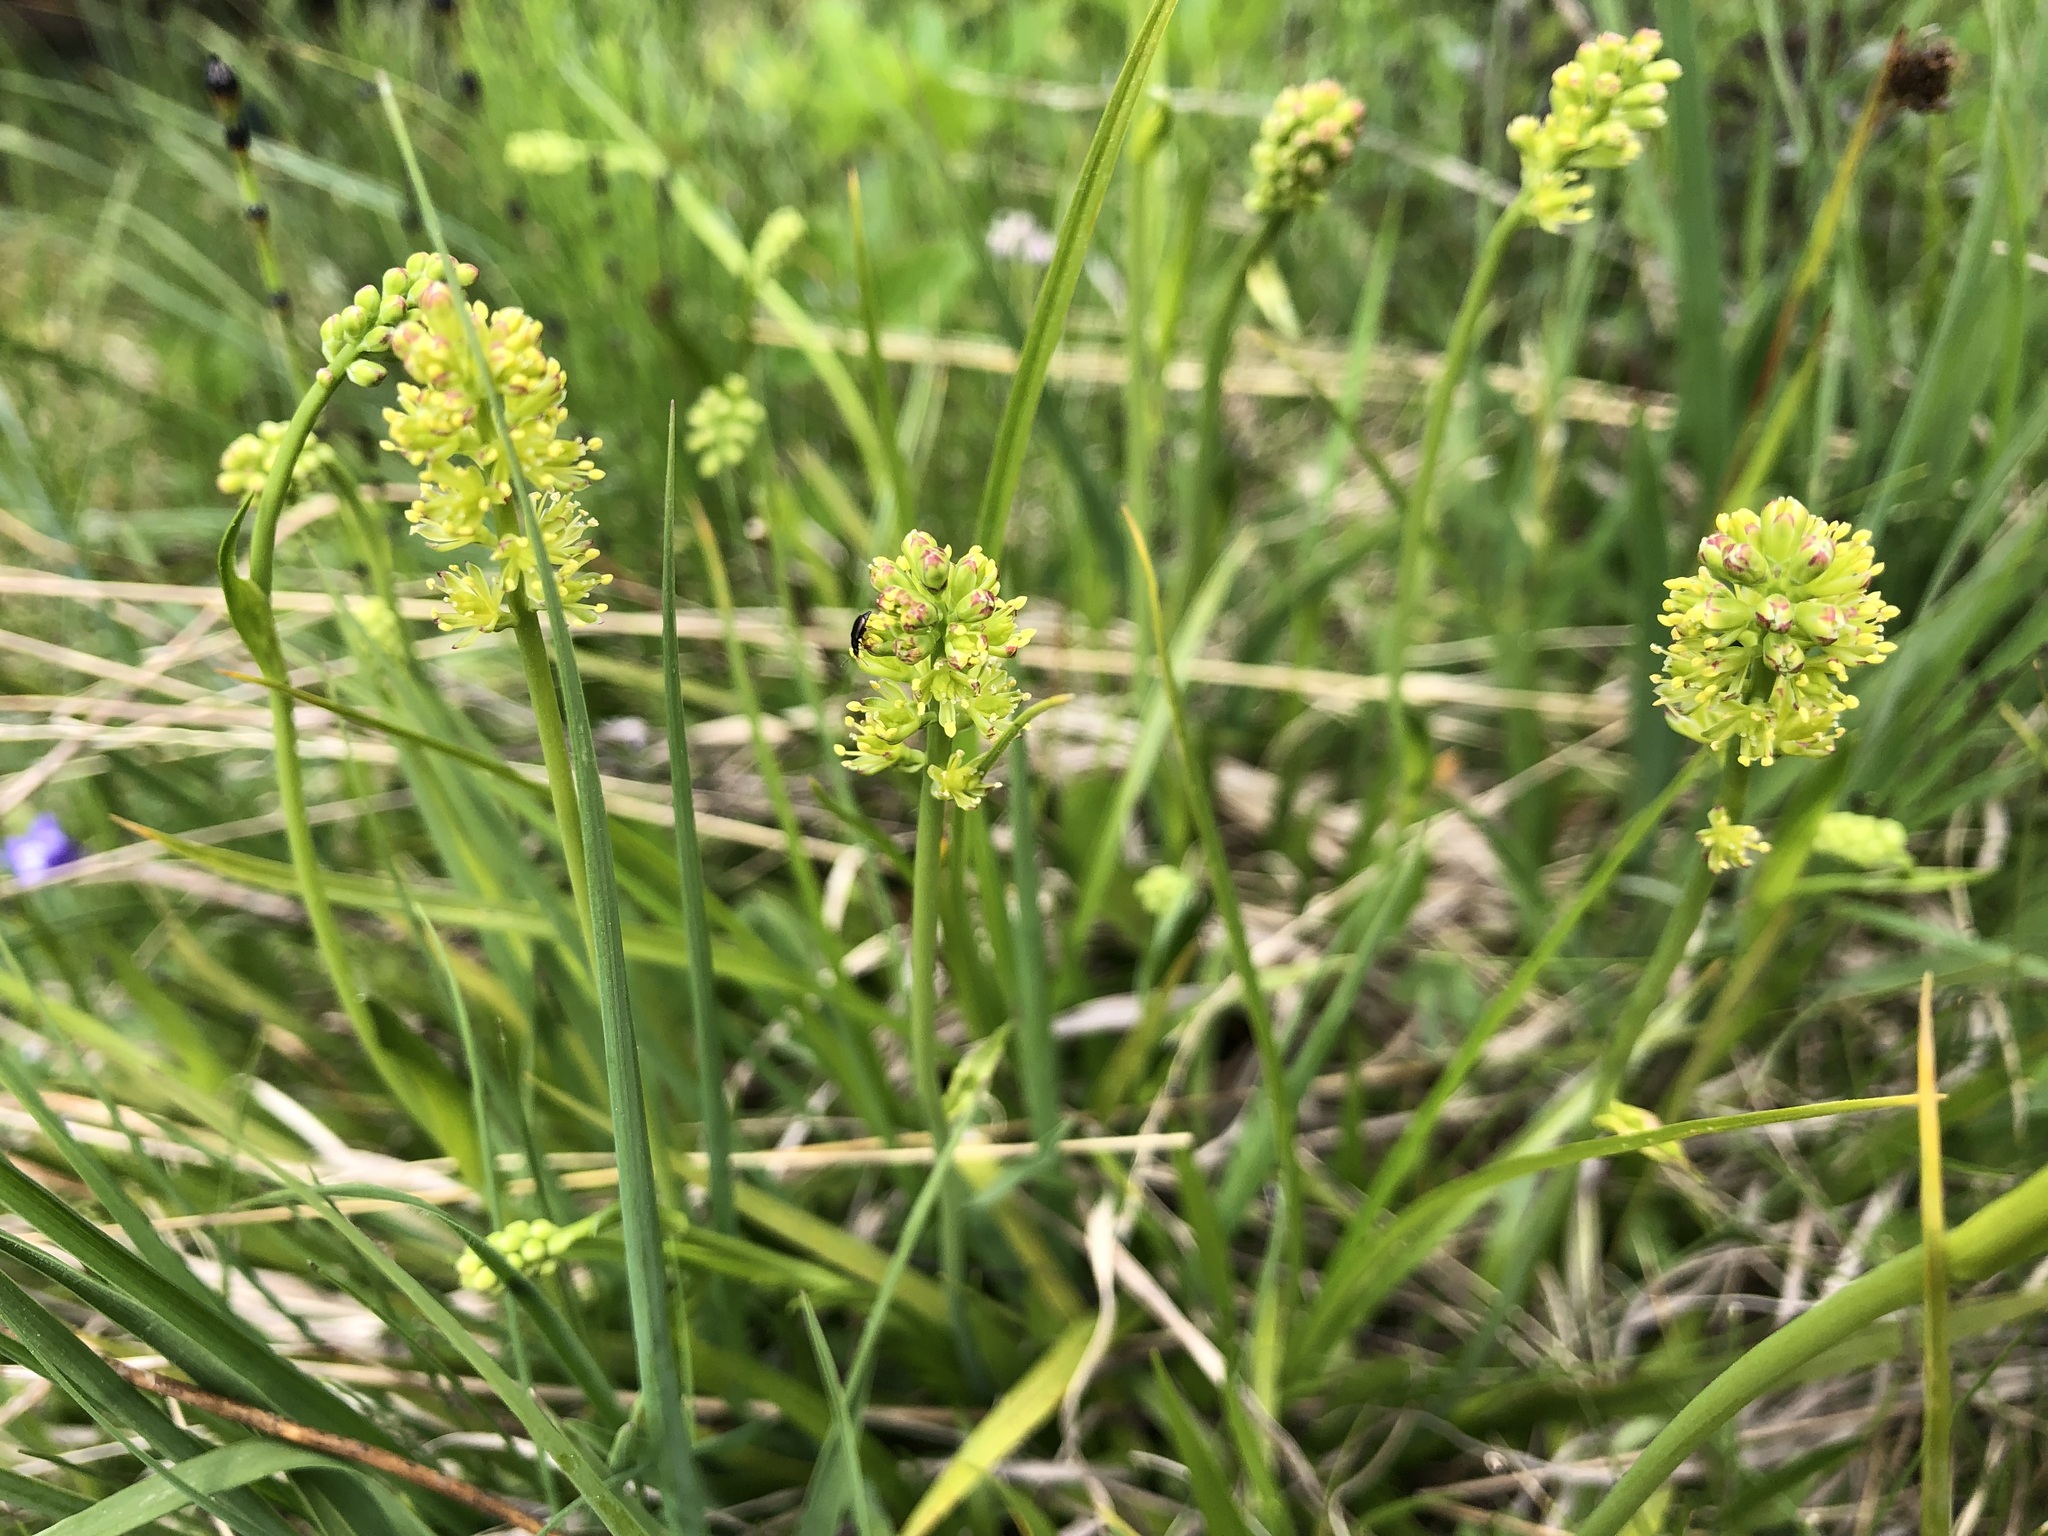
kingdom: Plantae
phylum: Tracheophyta
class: Liliopsida
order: Alismatales
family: Tofieldiaceae
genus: Tofieldia
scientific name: Tofieldia calyculata
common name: German-asphodel
